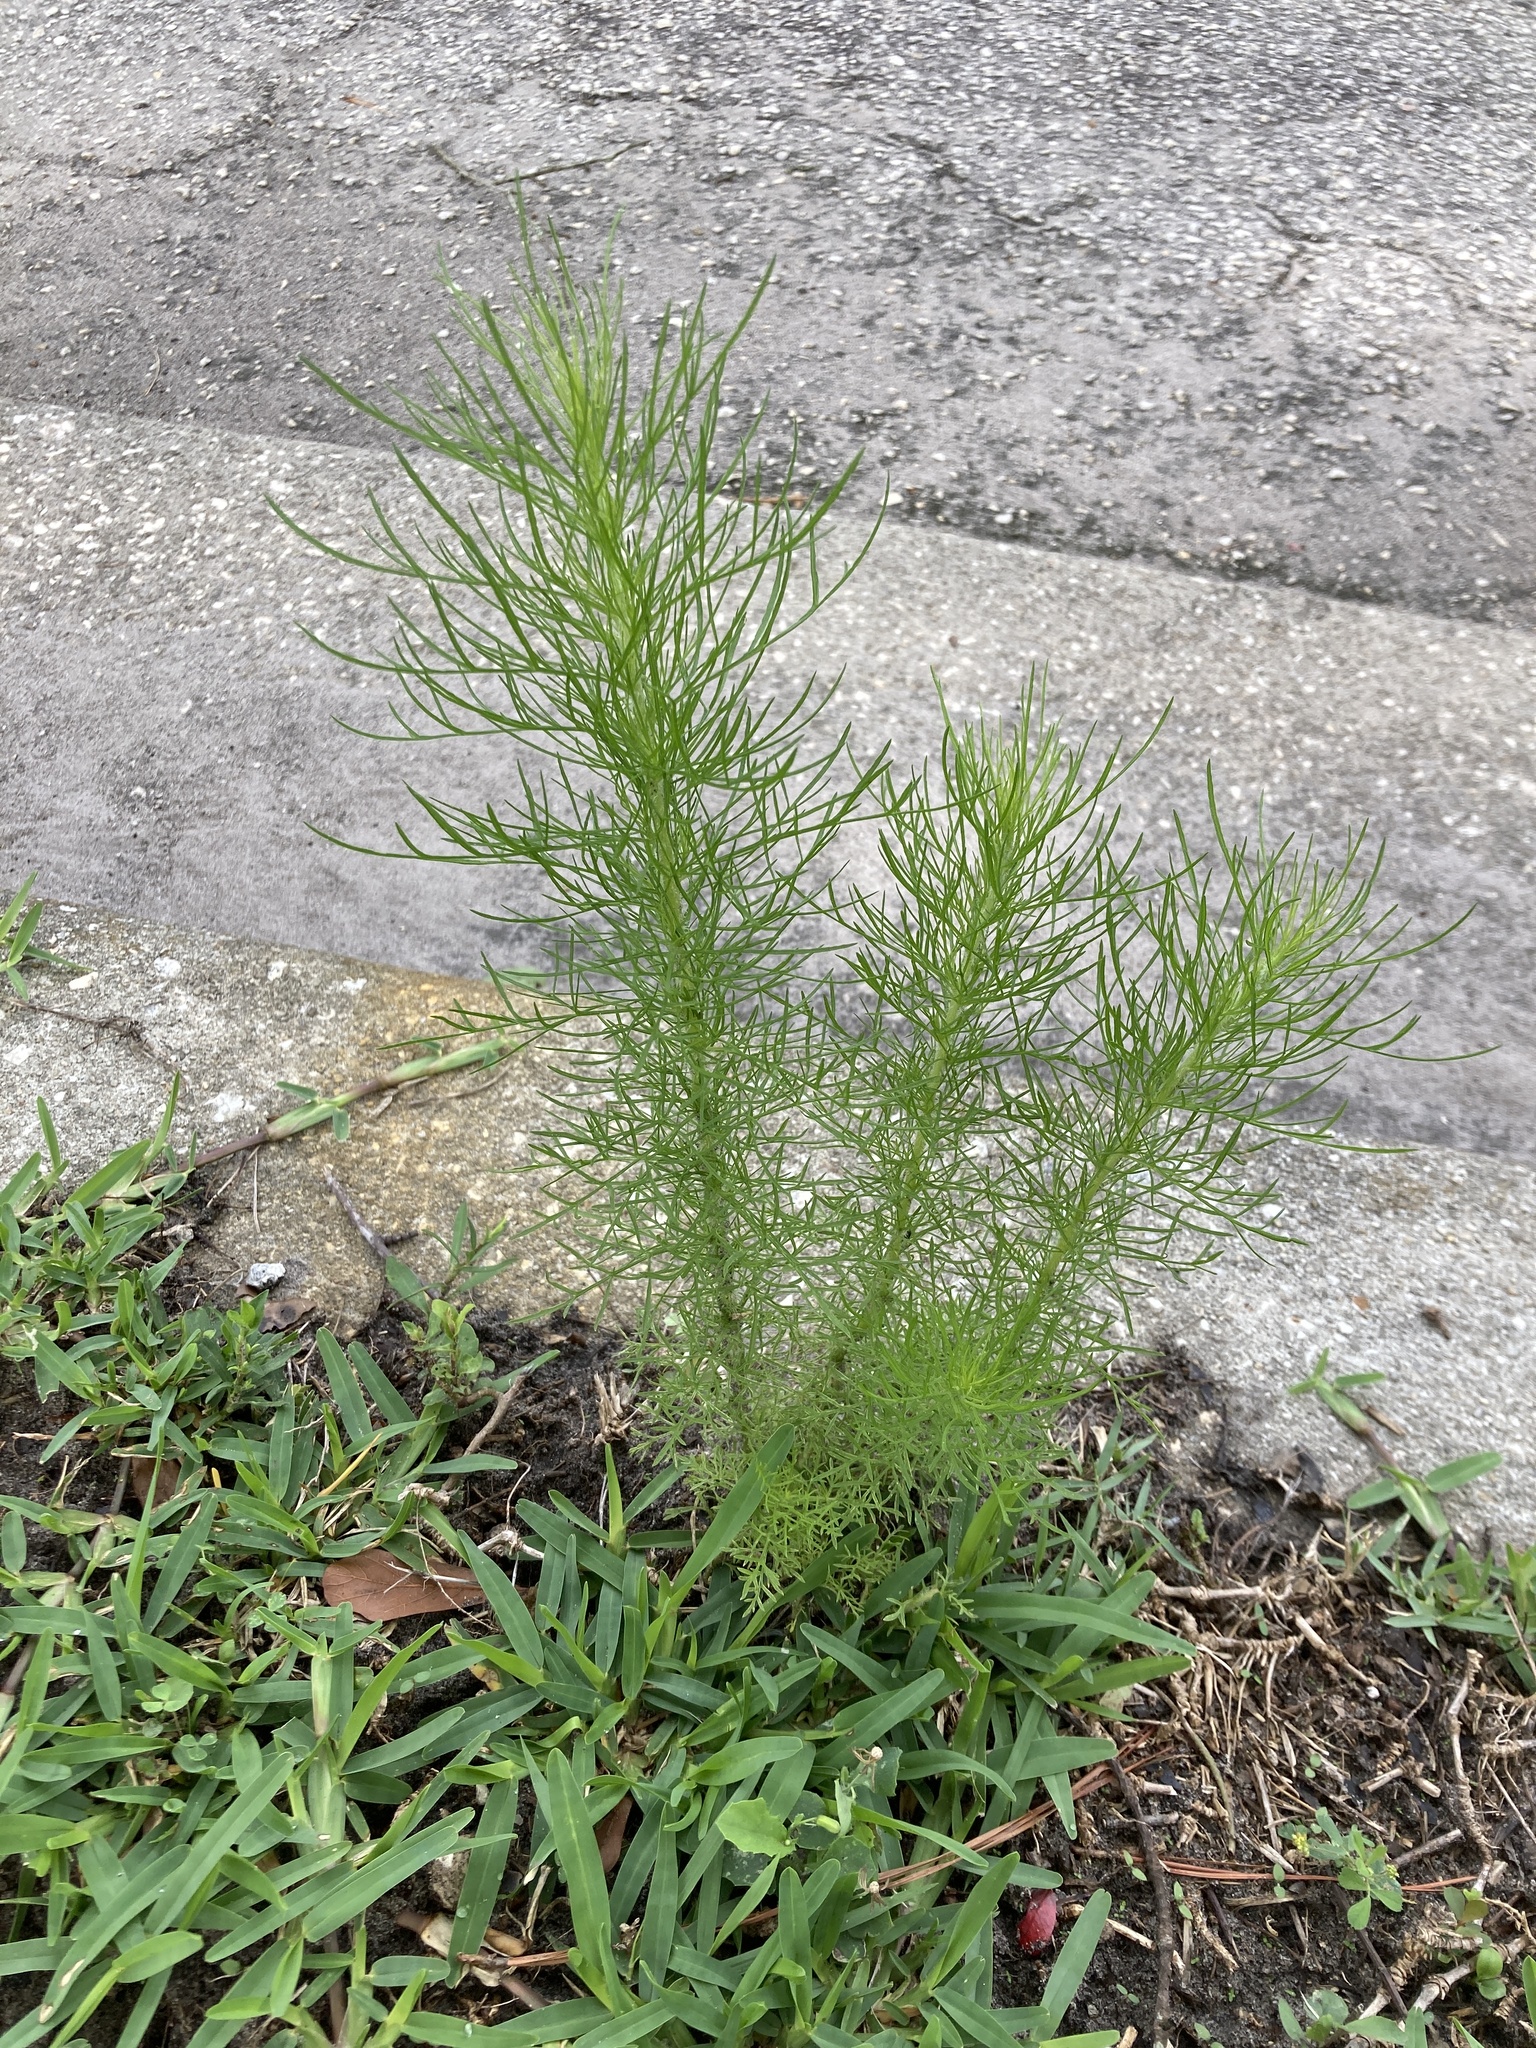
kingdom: Plantae
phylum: Tracheophyta
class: Magnoliopsida
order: Asterales
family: Asteraceae
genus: Eupatorium
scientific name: Eupatorium capillifolium
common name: Dog-fennel
